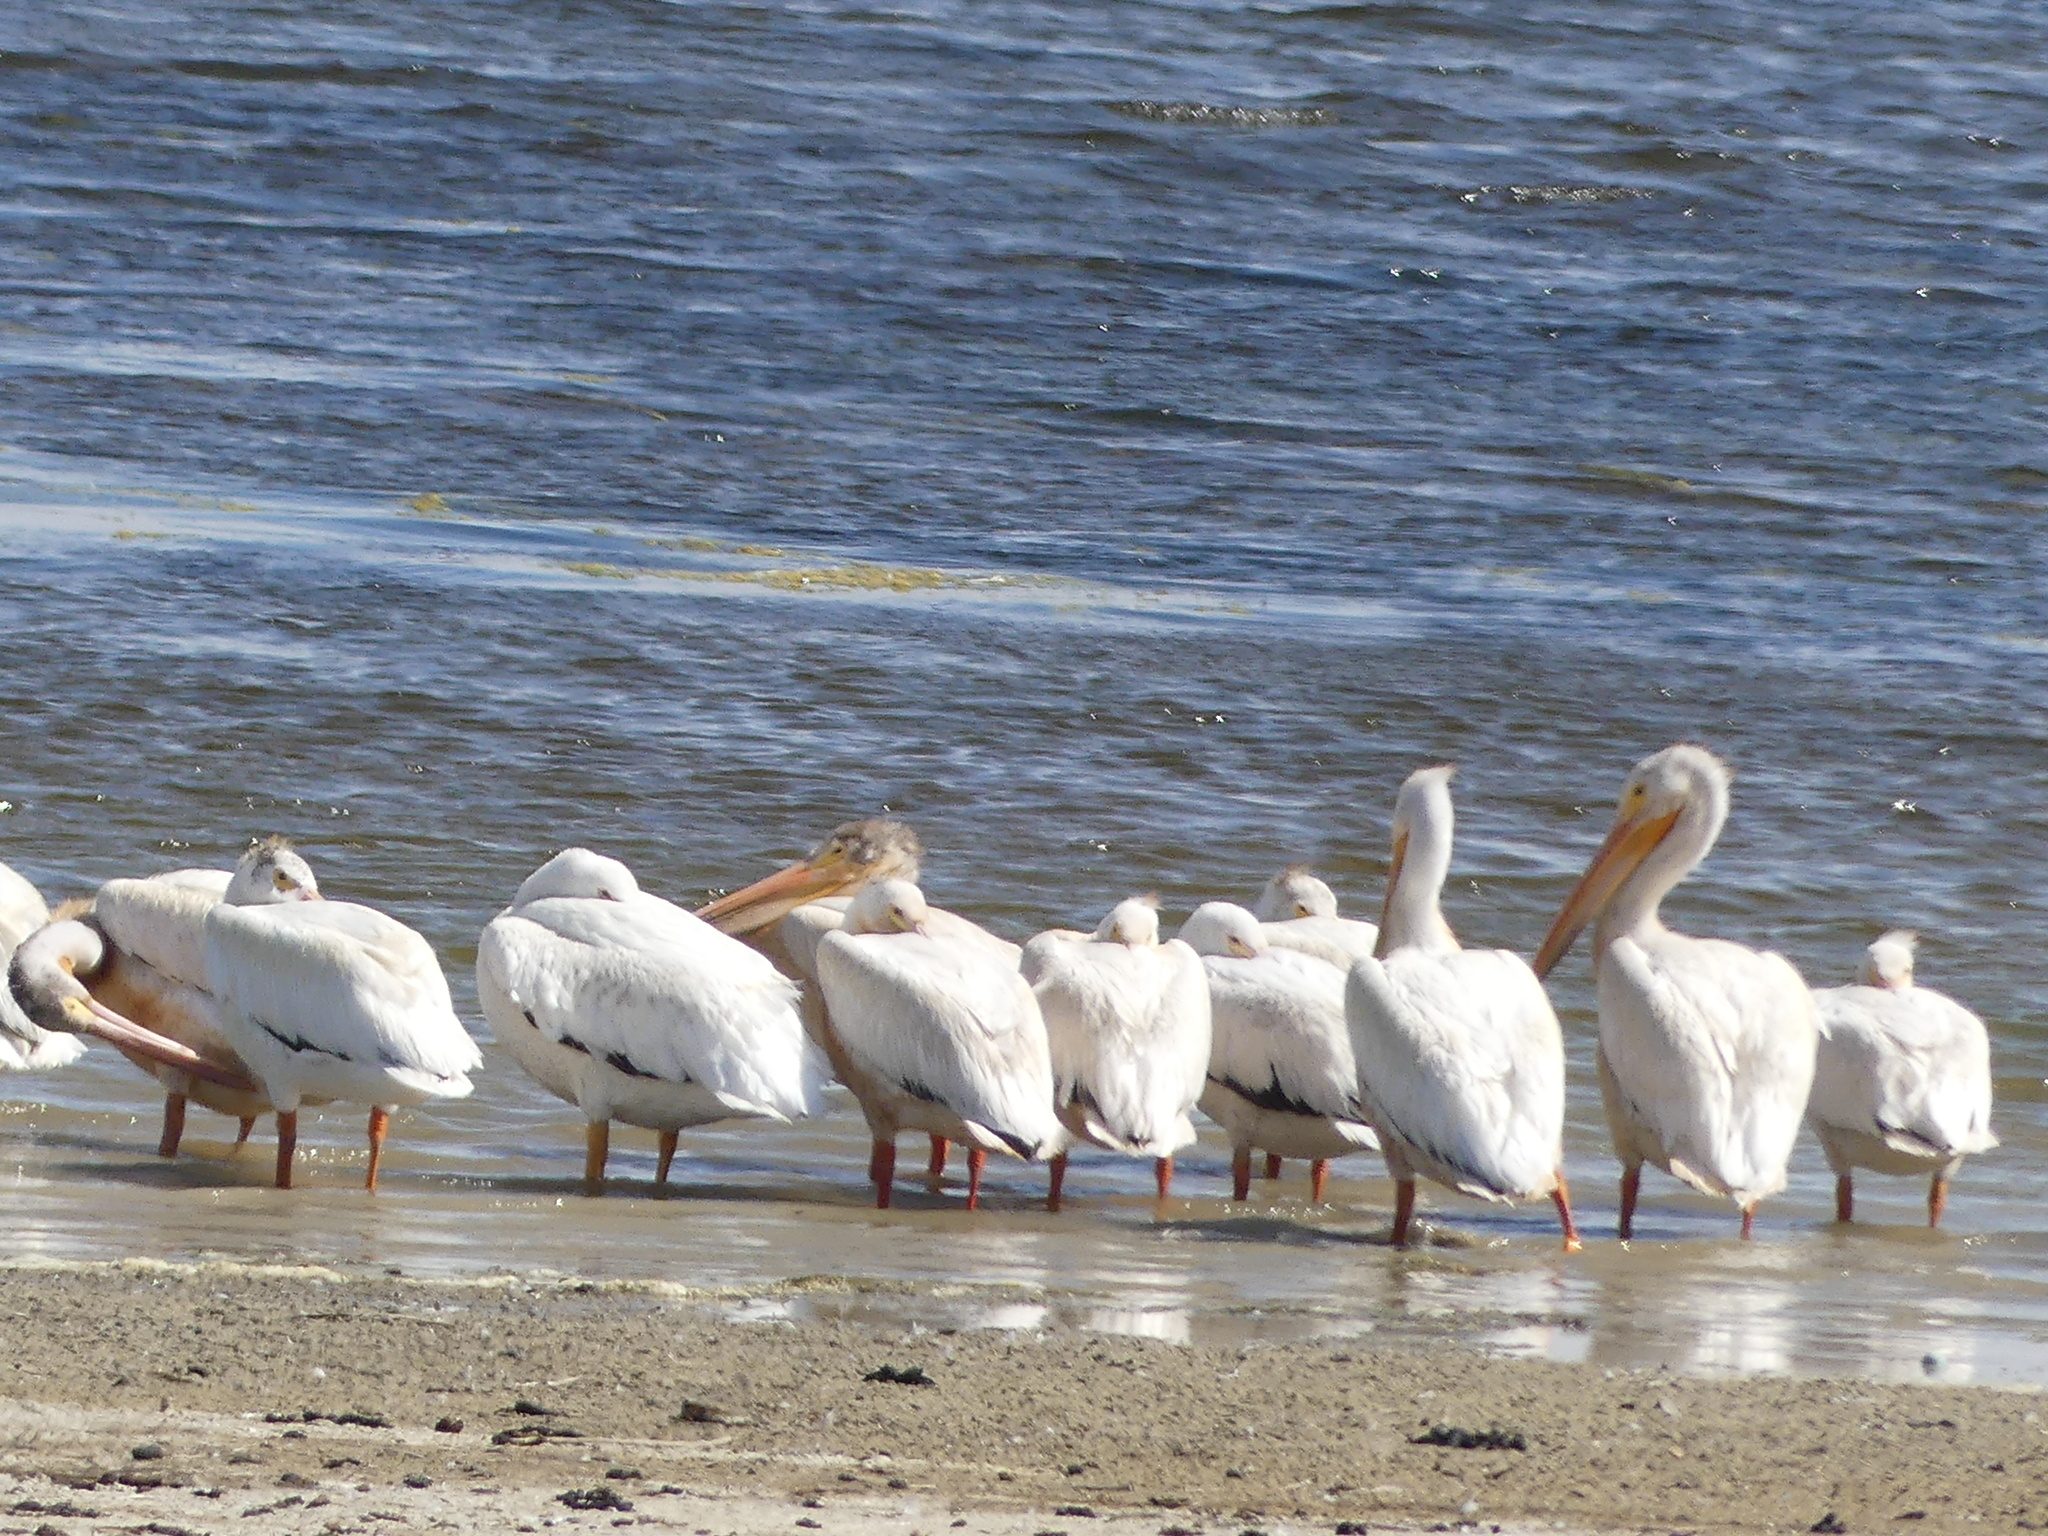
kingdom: Animalia
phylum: Chordata
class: Aves
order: Pelecaniformes
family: Pelecanidae
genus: Pelecanus
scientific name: Pelecanus erythrorhynchos
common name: American white pelican
